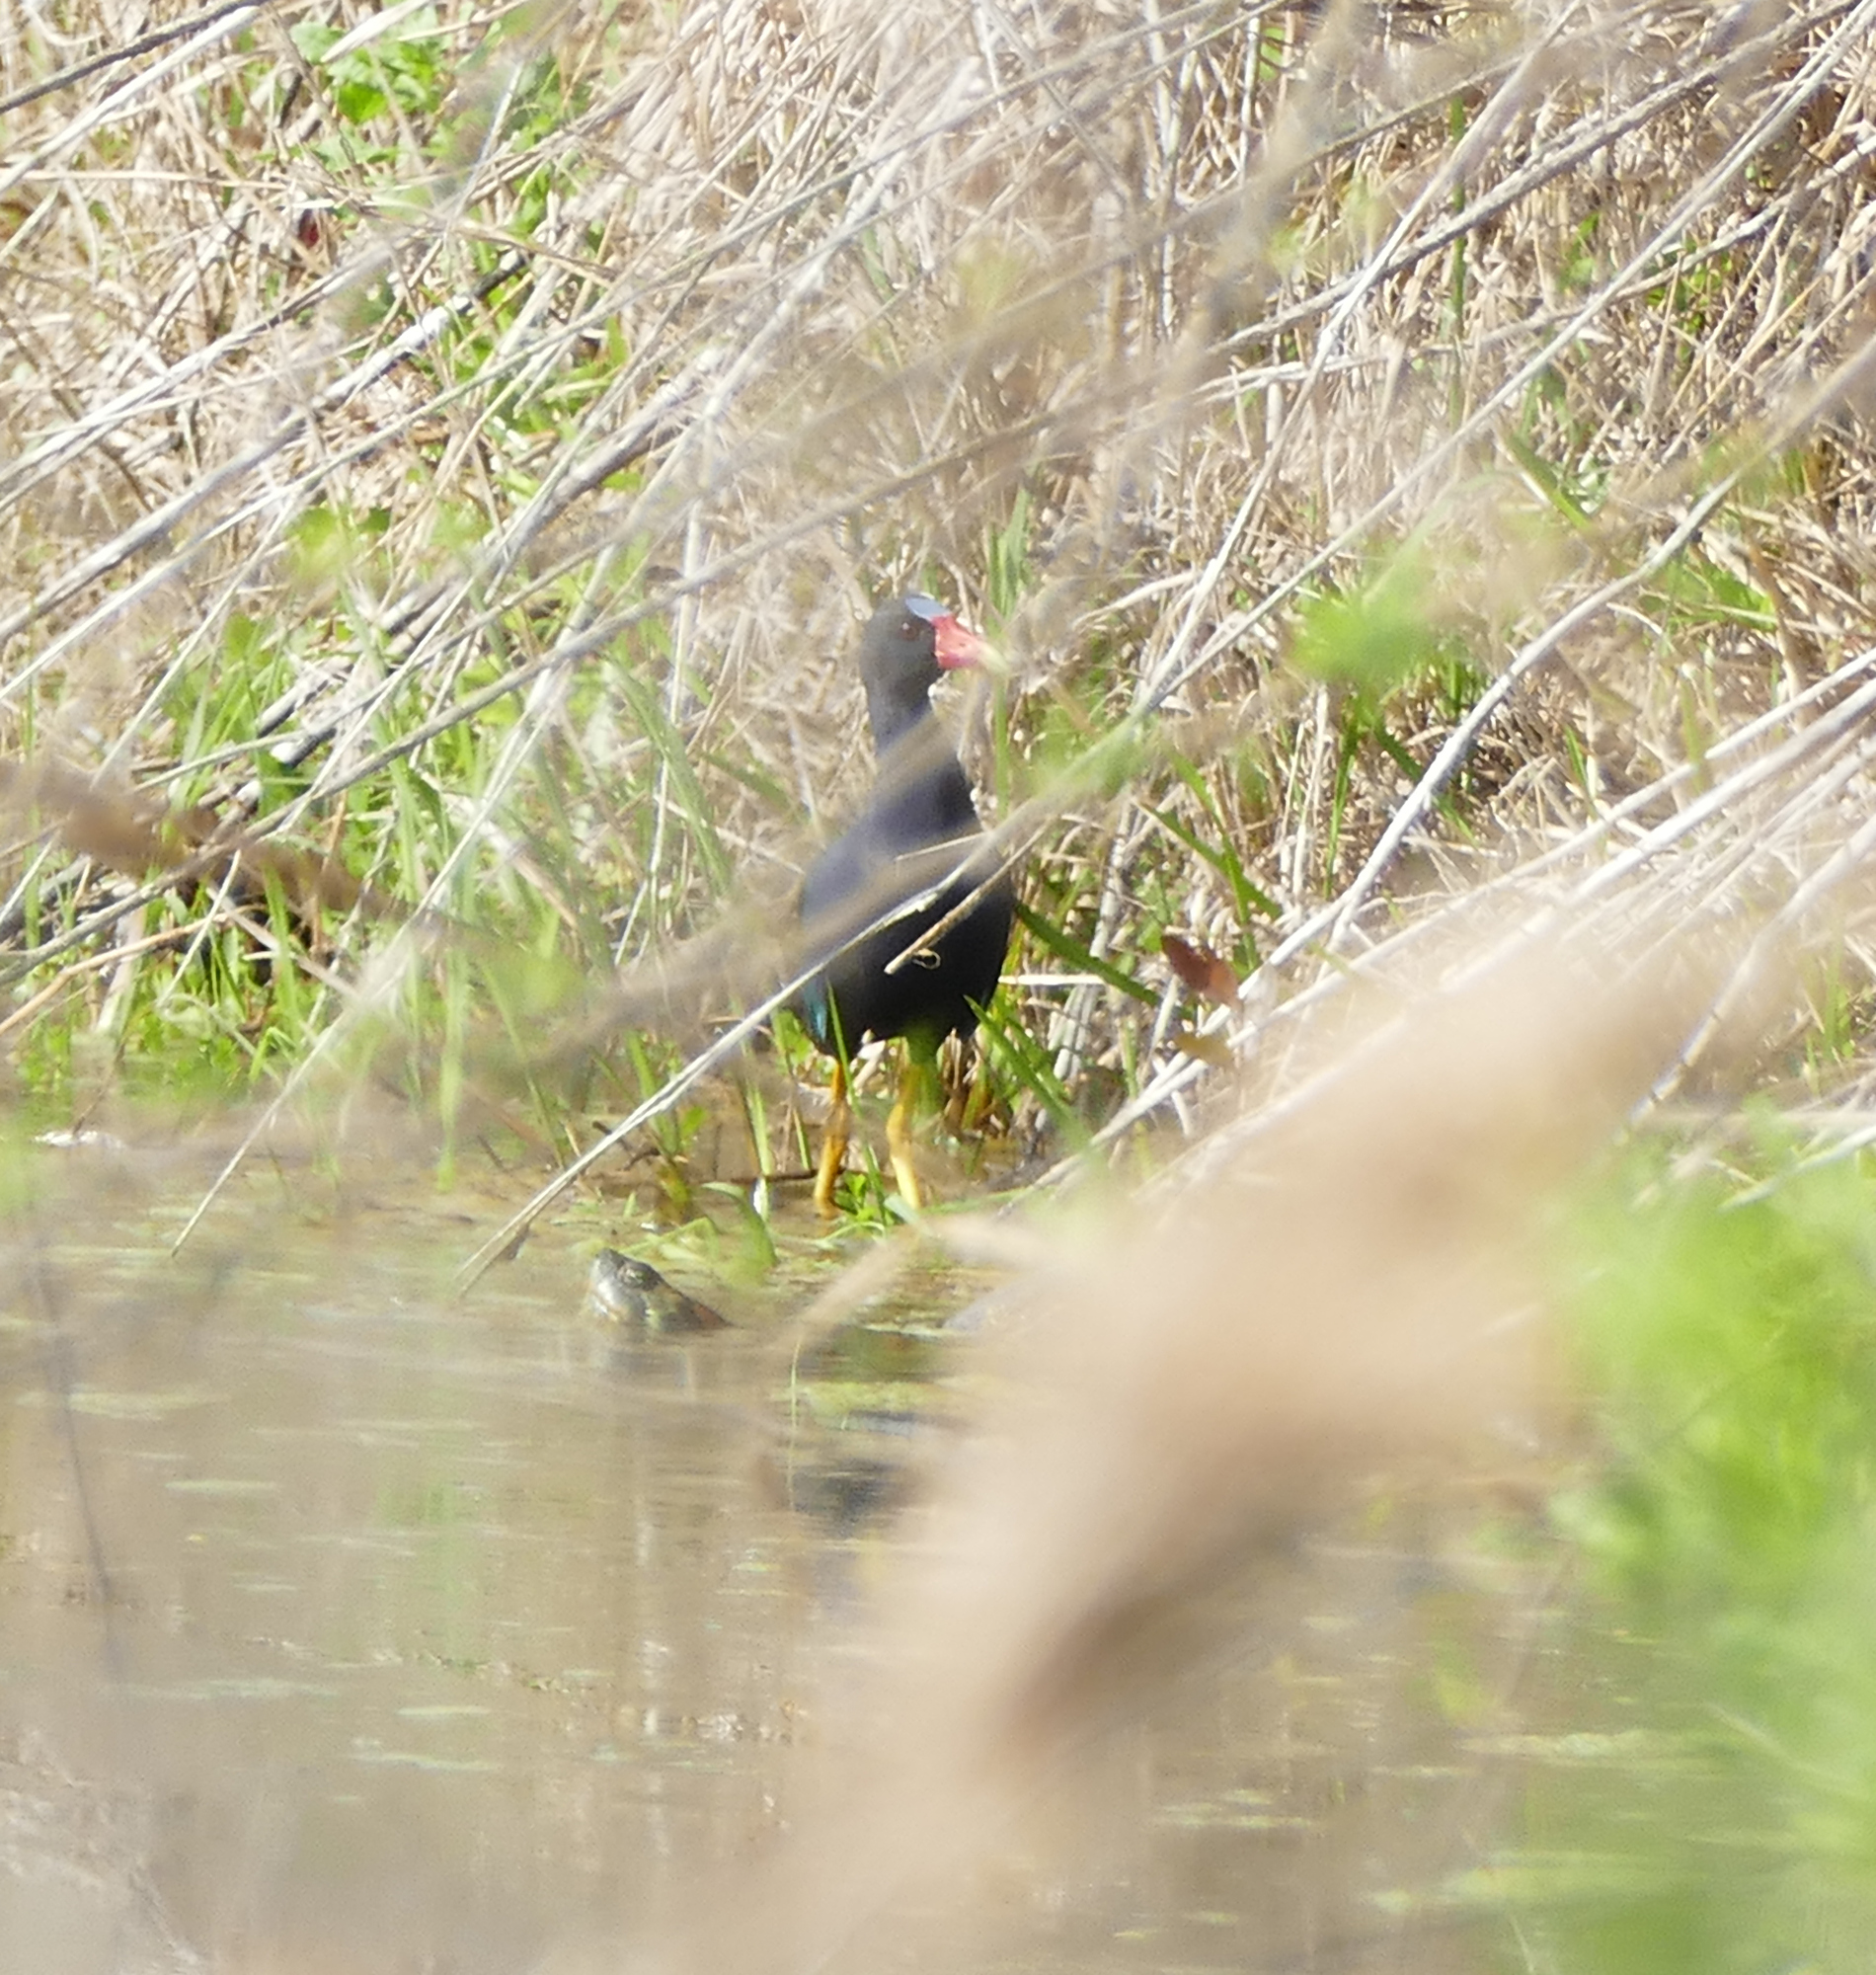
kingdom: Animalia
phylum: Chordata
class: Aves
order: Gruiformes
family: Rallidae
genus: Porphyrio
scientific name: Porphyrio martinica
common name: Purple gallinule
